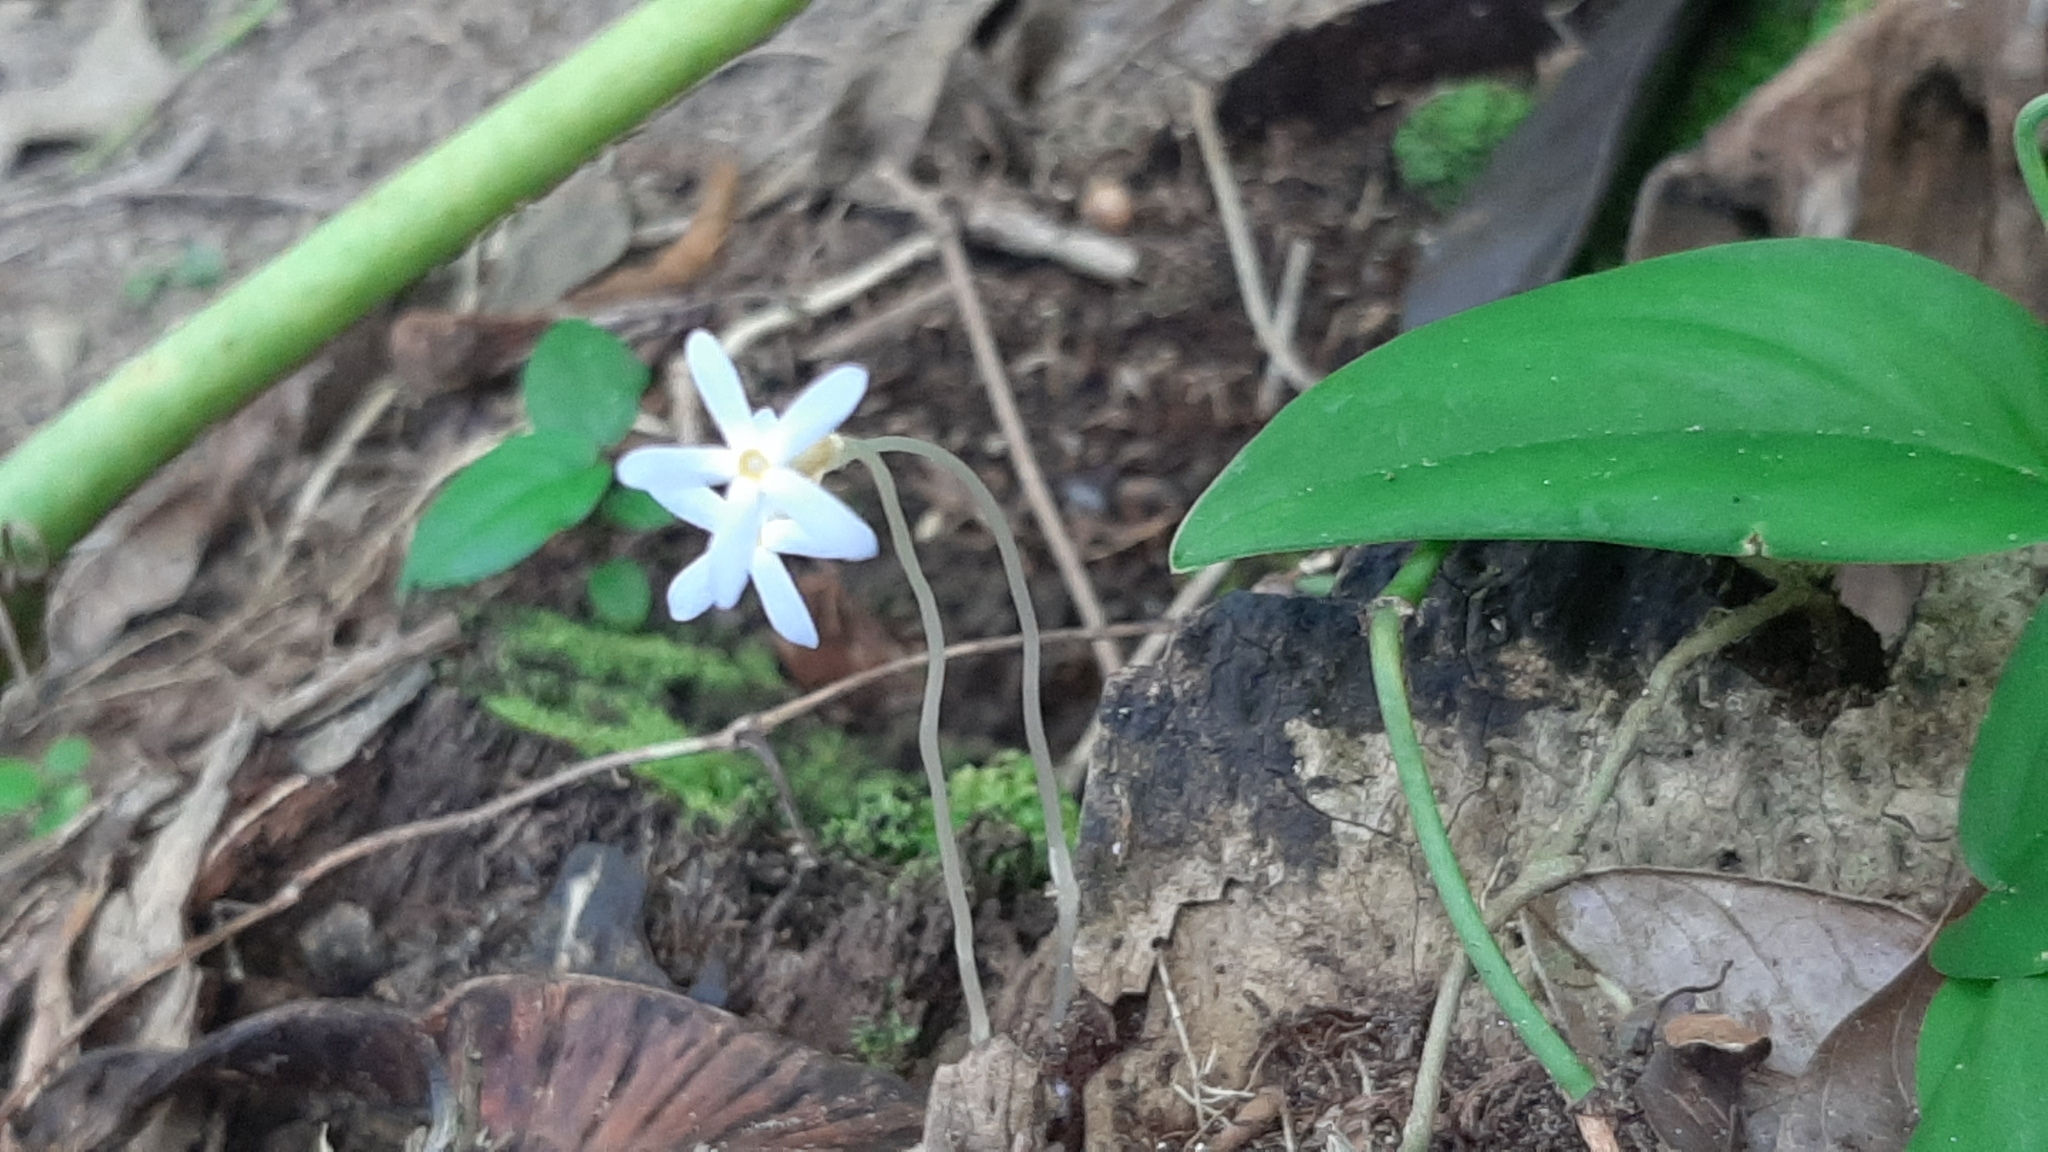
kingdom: Plantae
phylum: Tracheophyta
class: Magnoliopsida
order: Gentianales
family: Gentianaceae
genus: Voyria
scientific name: Voyria tenella
